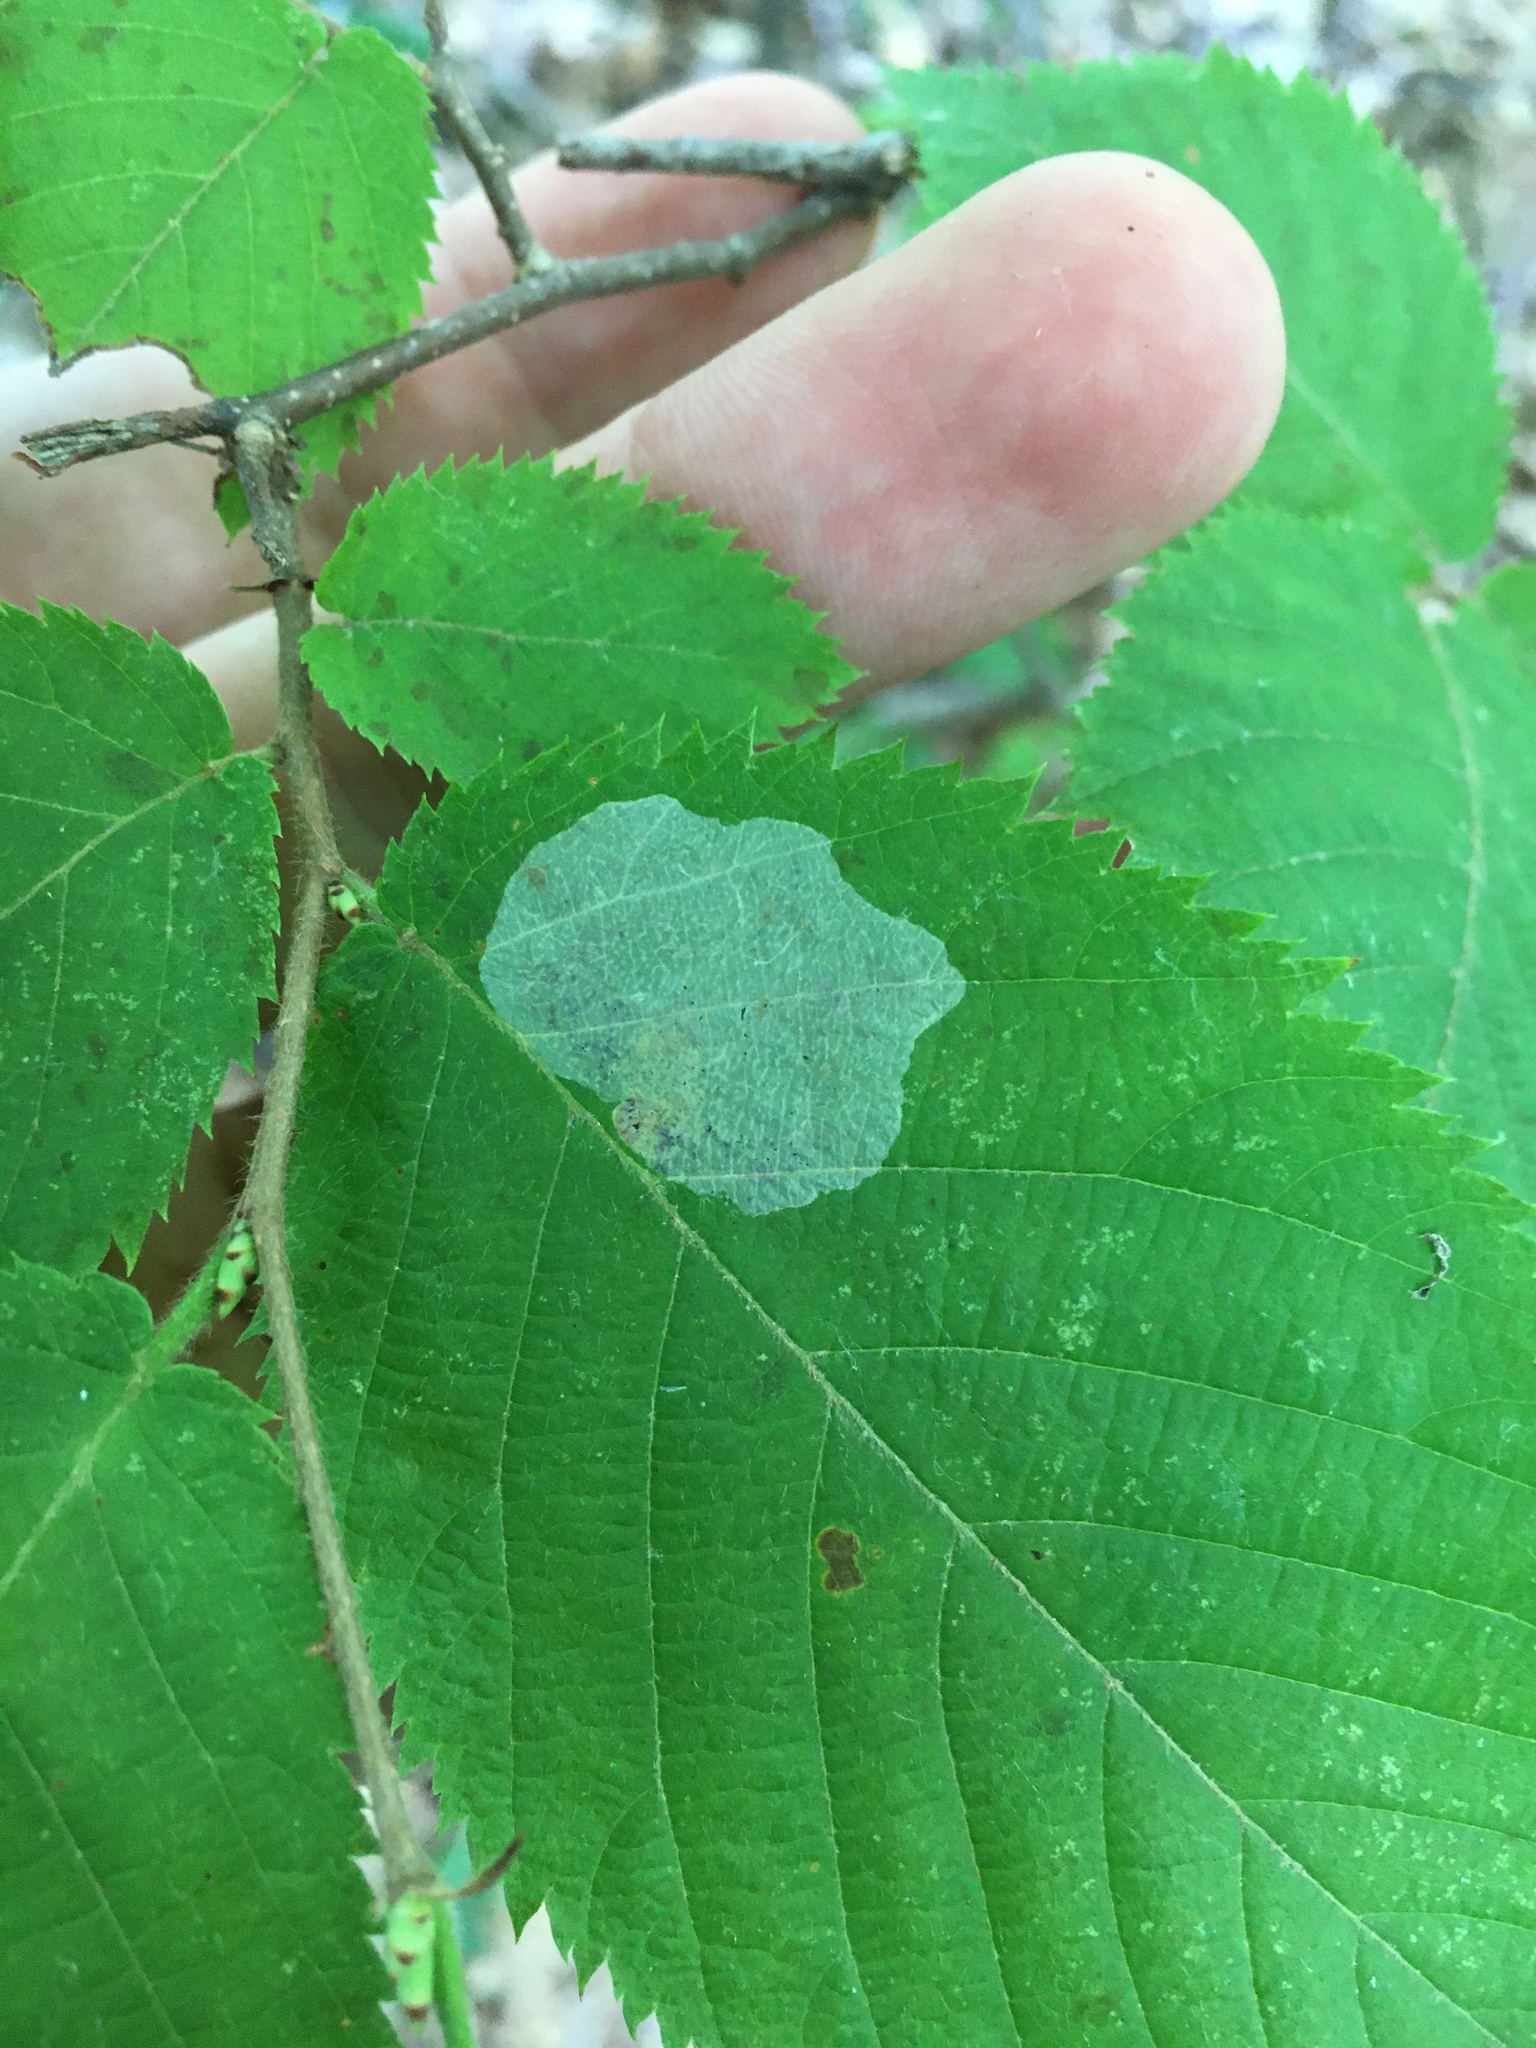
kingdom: Animalia
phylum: Arthropoda
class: Insecta
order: Lepidoptera
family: Gracillariidae
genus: Phyllonorycter
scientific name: Phyllonorycter tritaenianella
